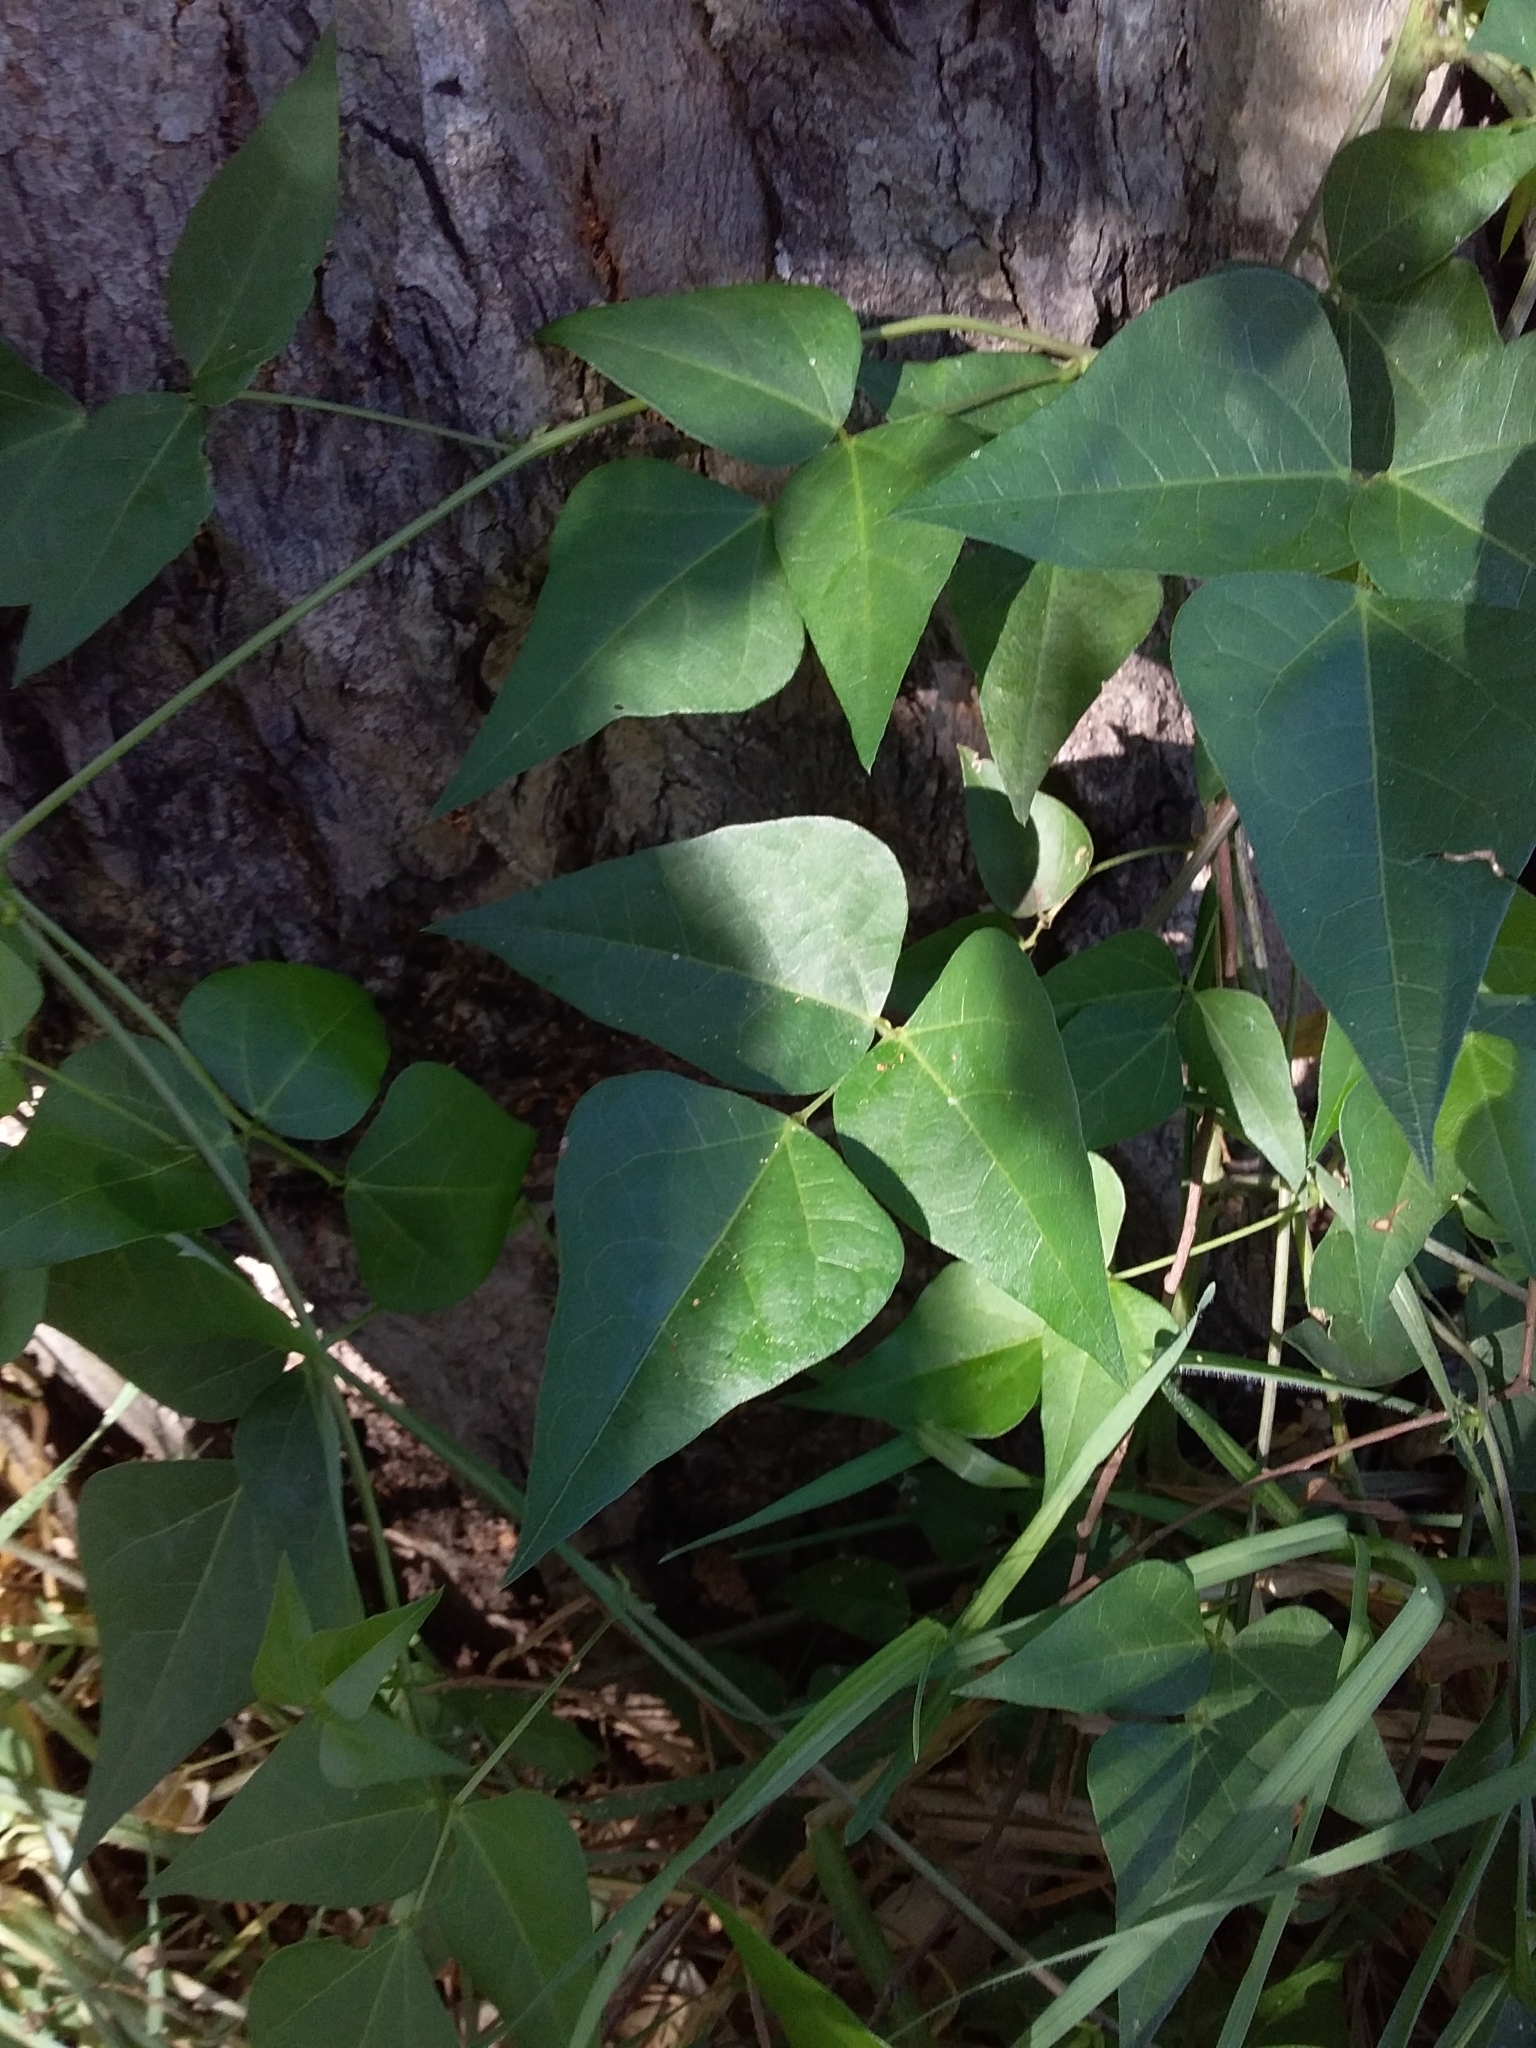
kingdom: Plantae
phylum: Tracheophyta
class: Magnoliopsida
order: Fabales
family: Fabaceae
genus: Dipogon
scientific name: Dipogon lignosus
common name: Okie bean
